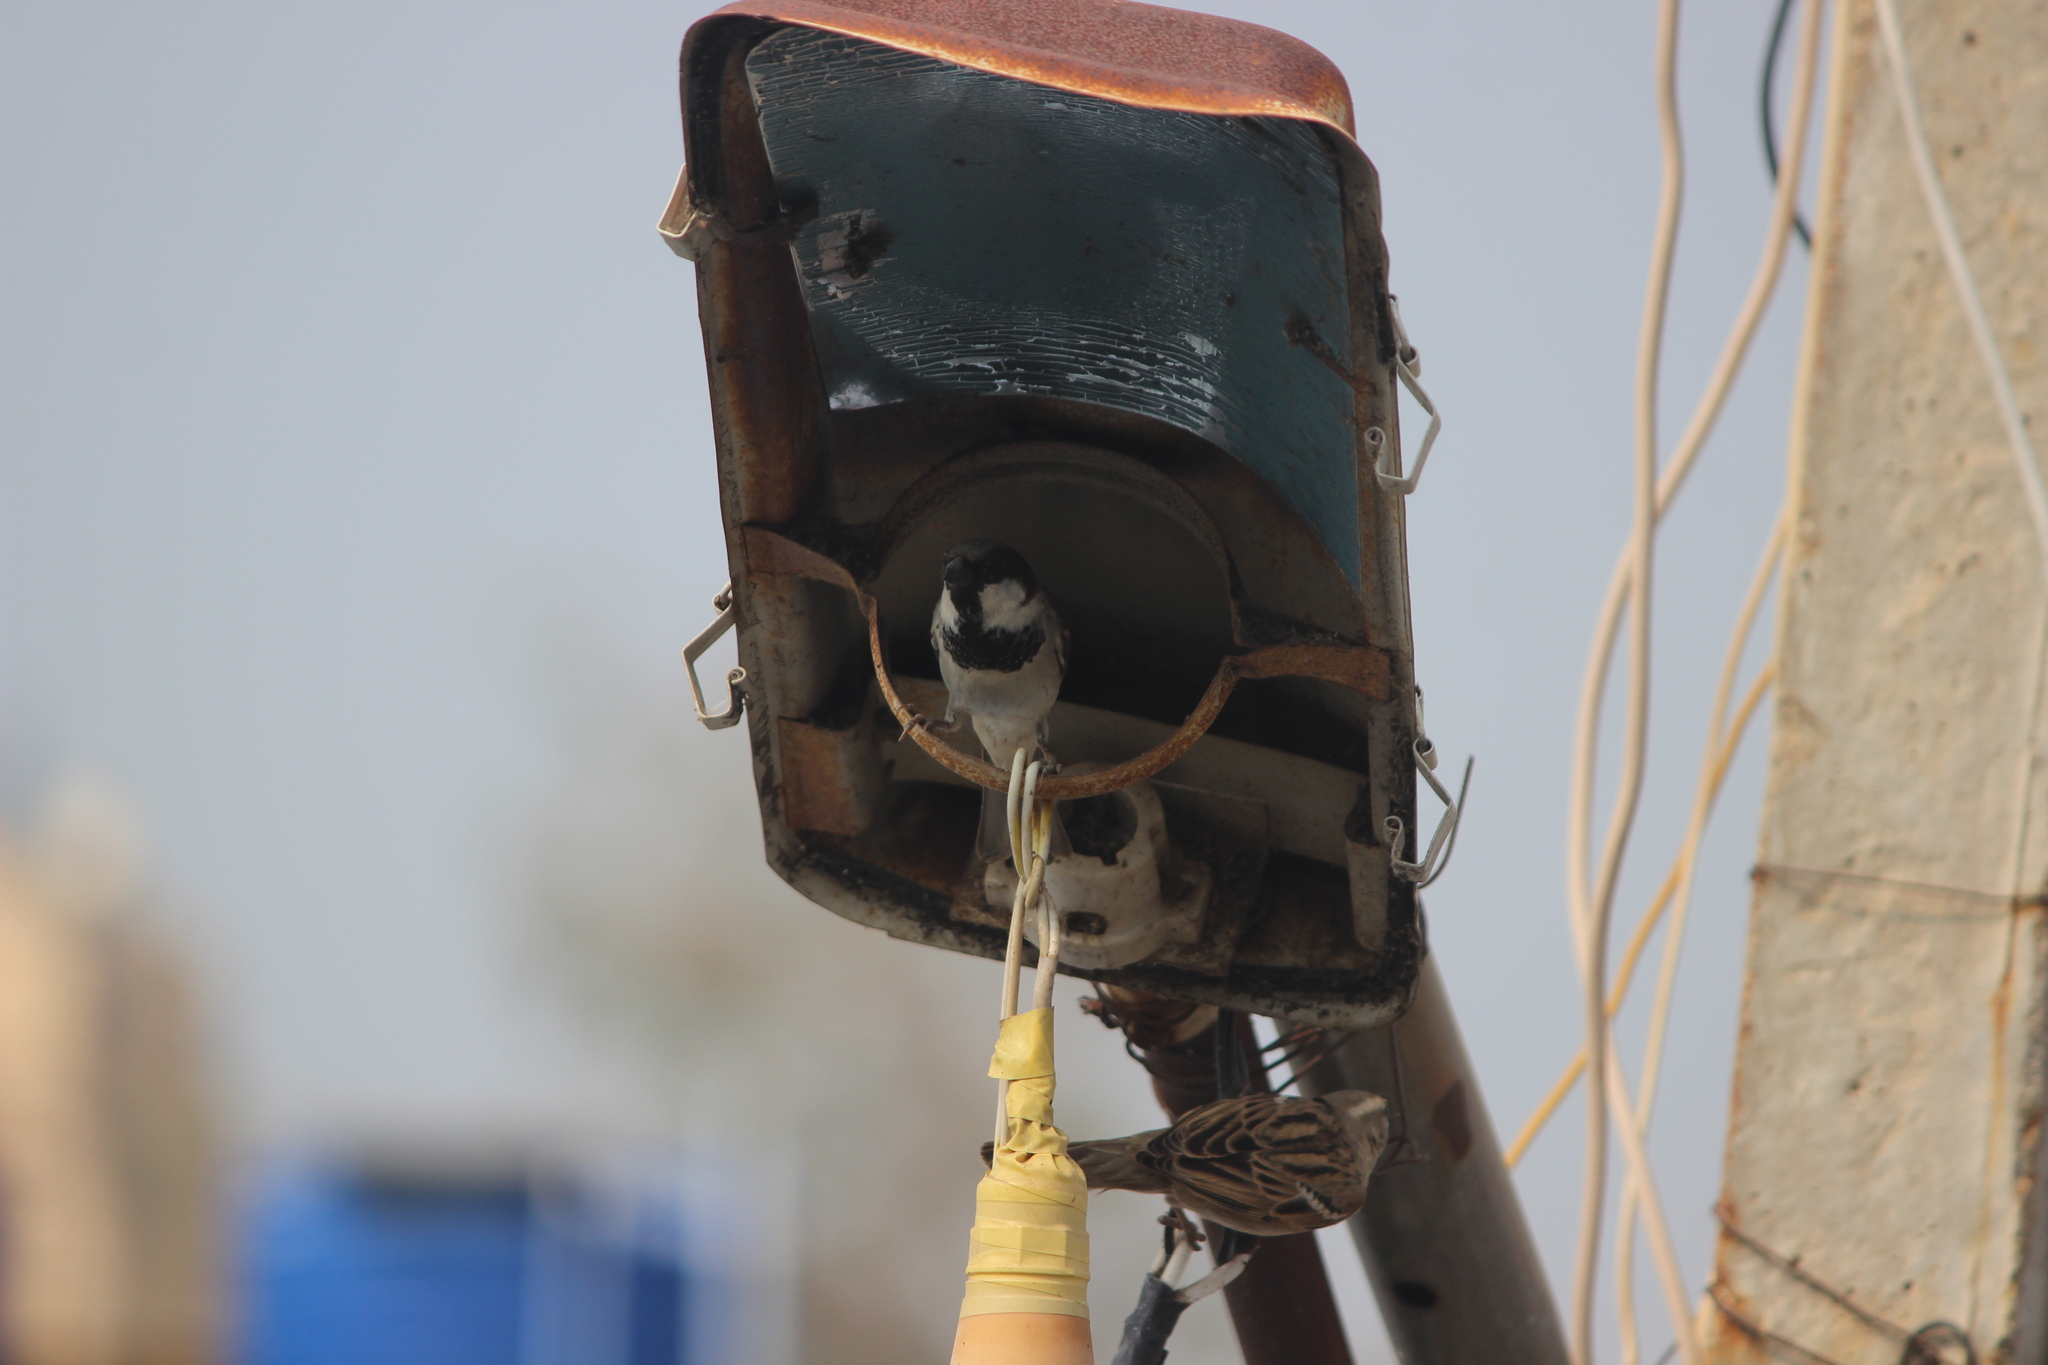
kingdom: Animalia
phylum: Chordata
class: Aves
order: Passeriformes
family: Passeridae
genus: Passer
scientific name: Passer domesticus
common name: House sparrow
